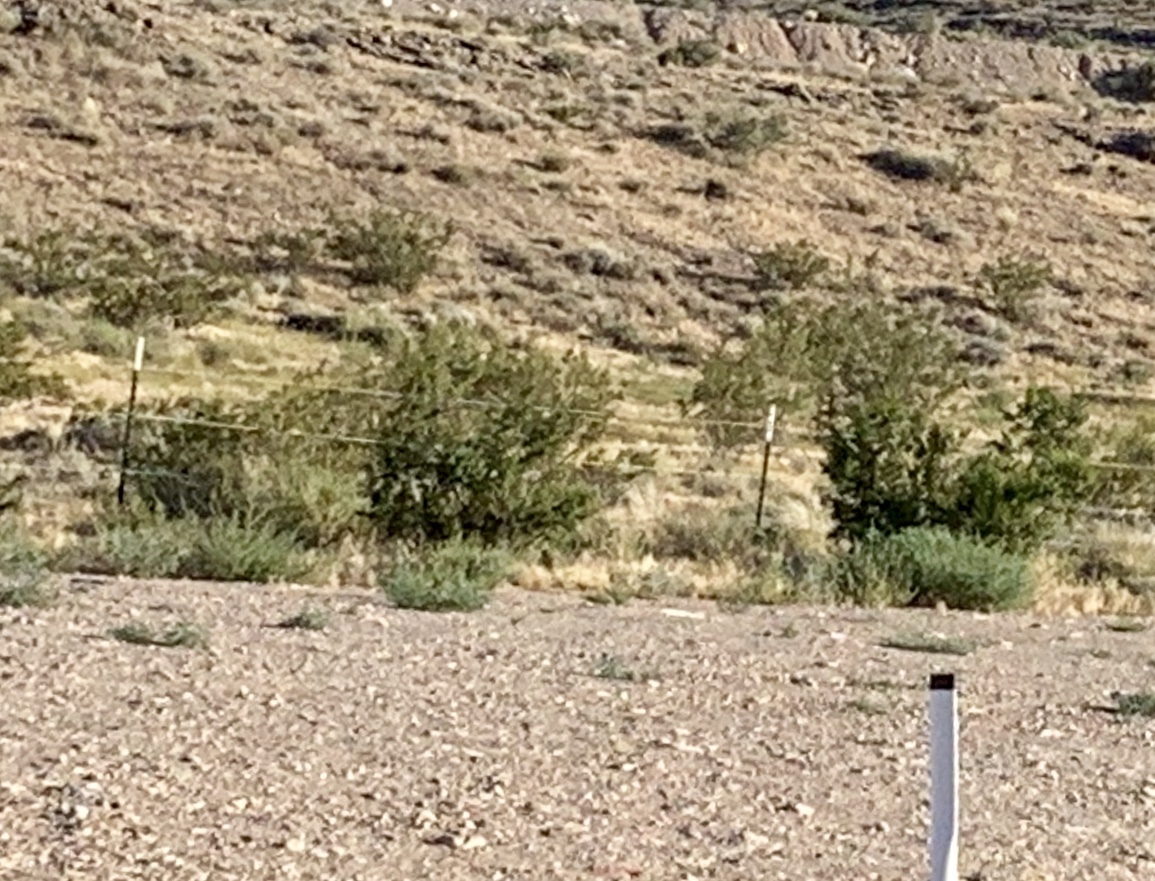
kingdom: Plantae
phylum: Tracheophyta
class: Magnoliopsida
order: Zygophyllales
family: Zygophyllaceae
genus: Larrea
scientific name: Larrea tridentata
